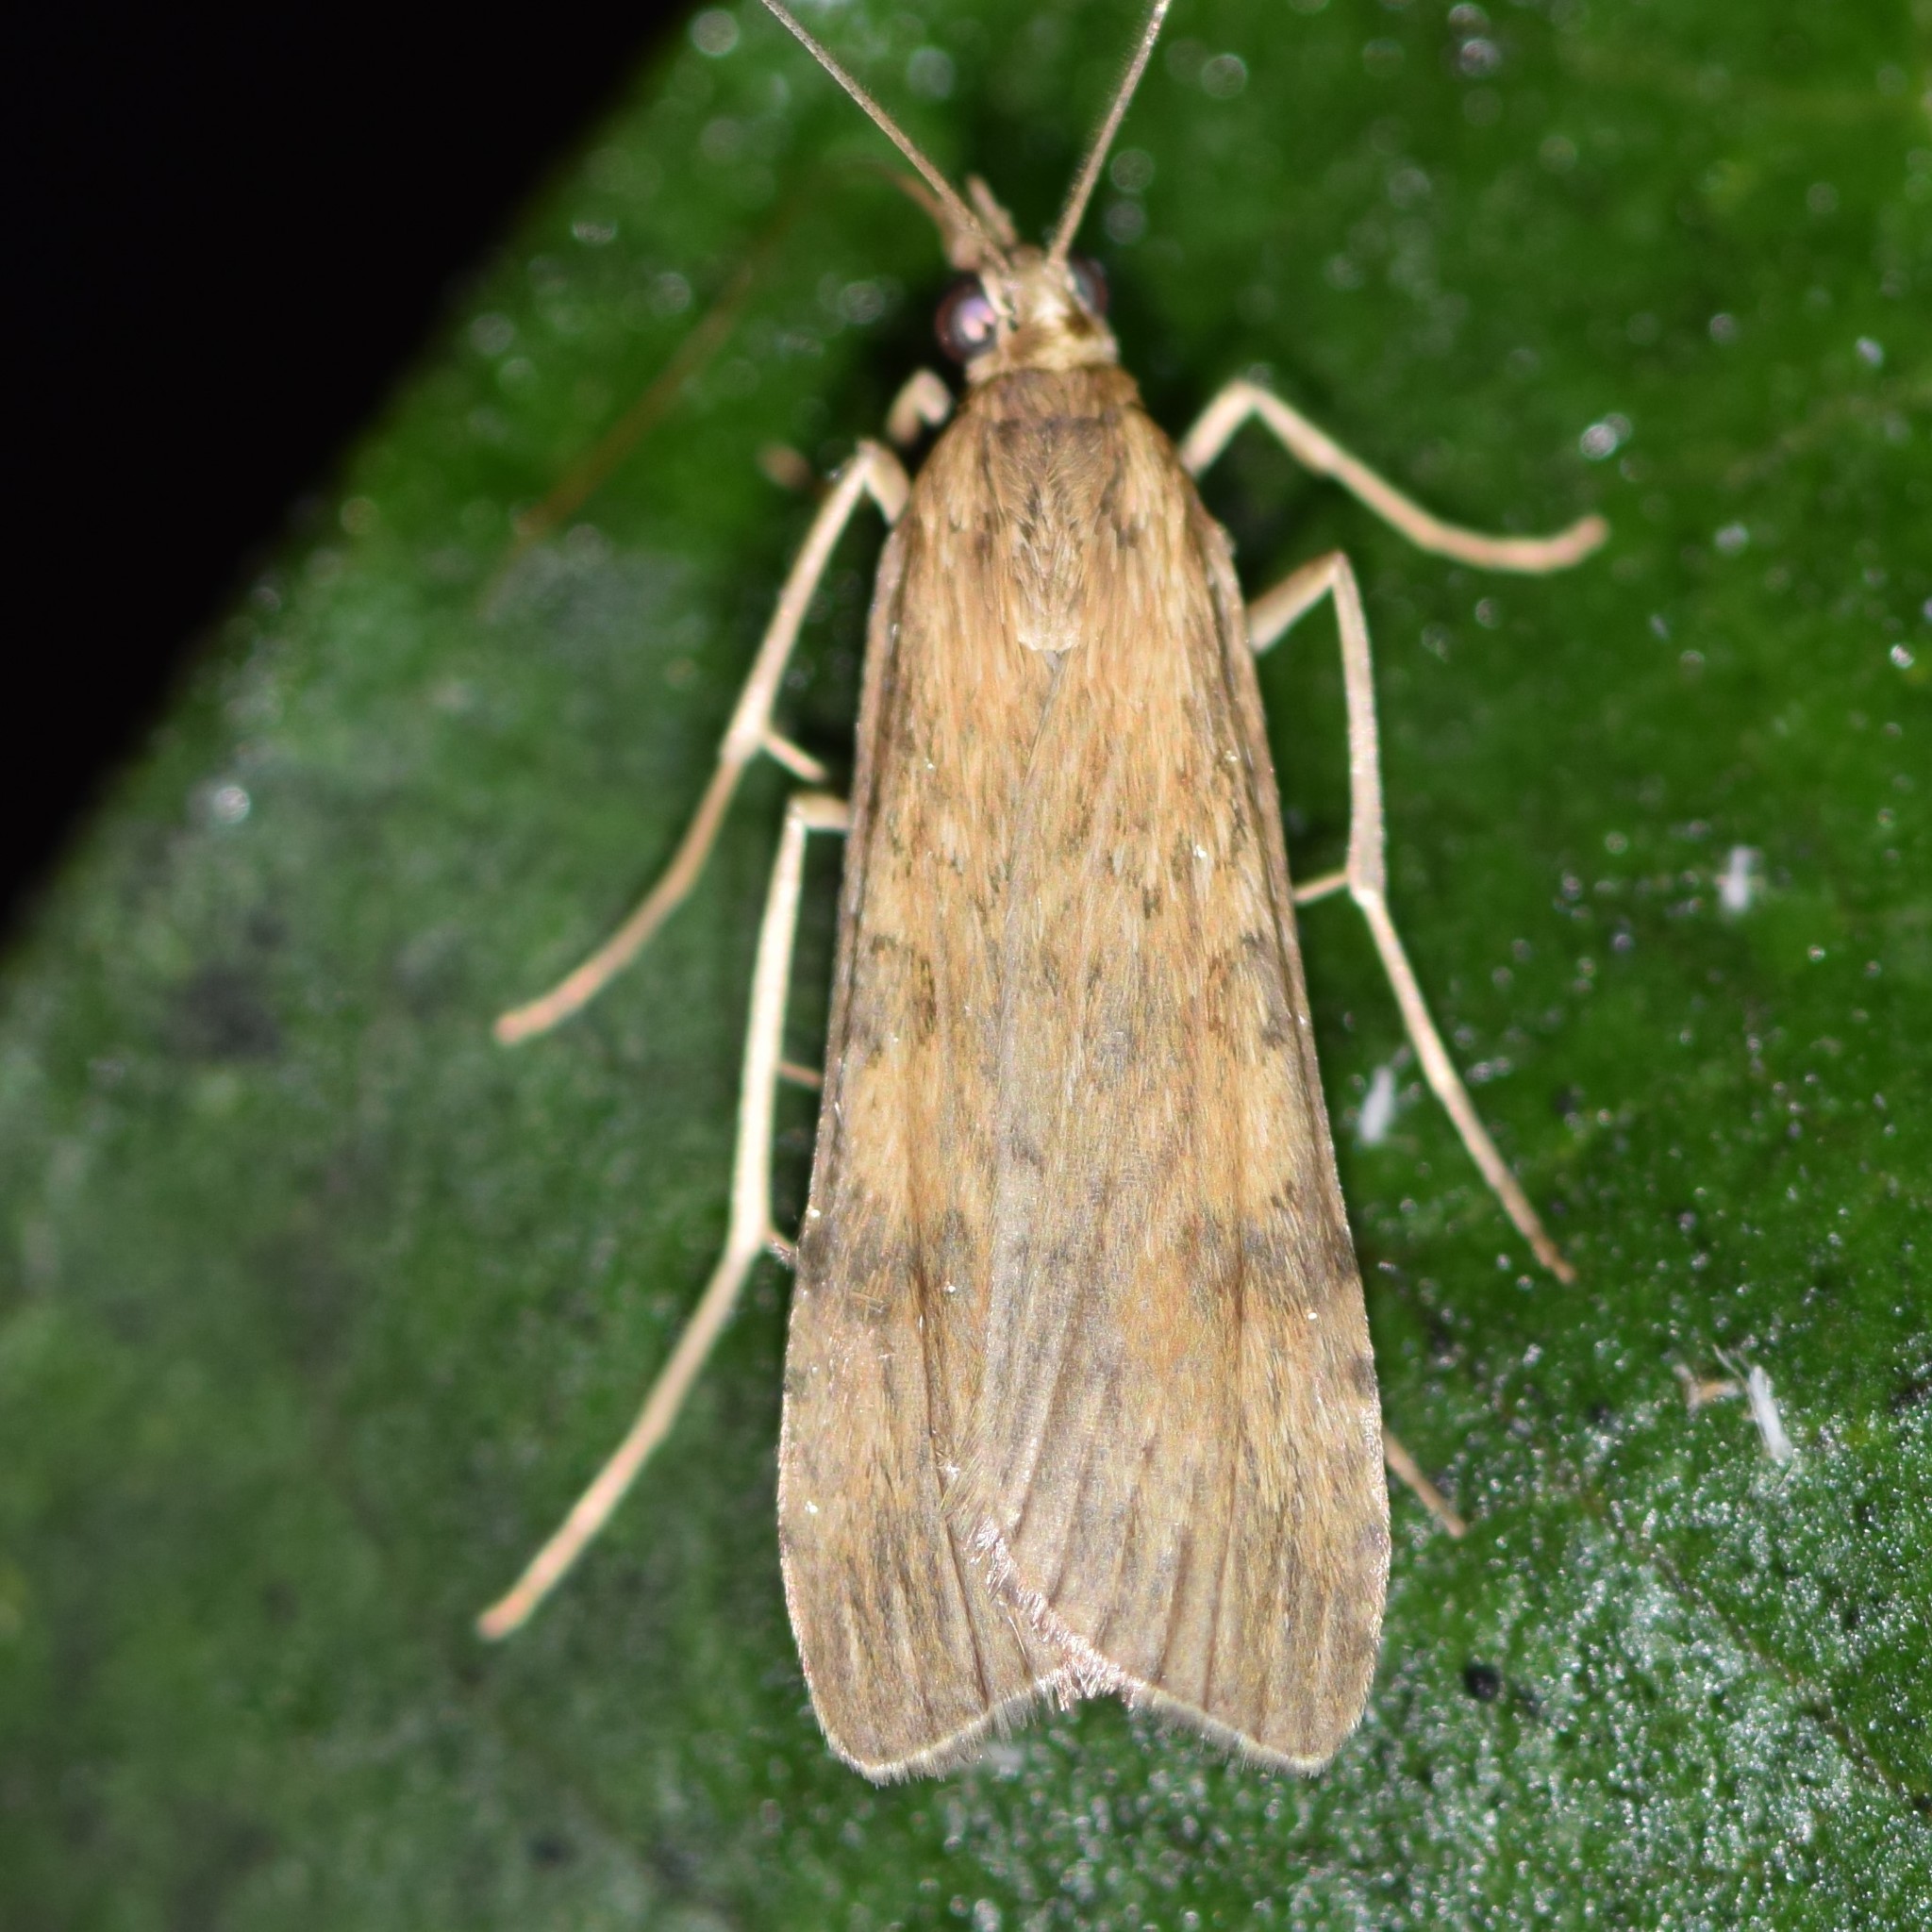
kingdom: Animalia
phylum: Arthropoda
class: Insecta
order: Lepidoptera
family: Crambidae
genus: Nomophila
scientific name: Nomophila nearctica
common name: American rush veneer
